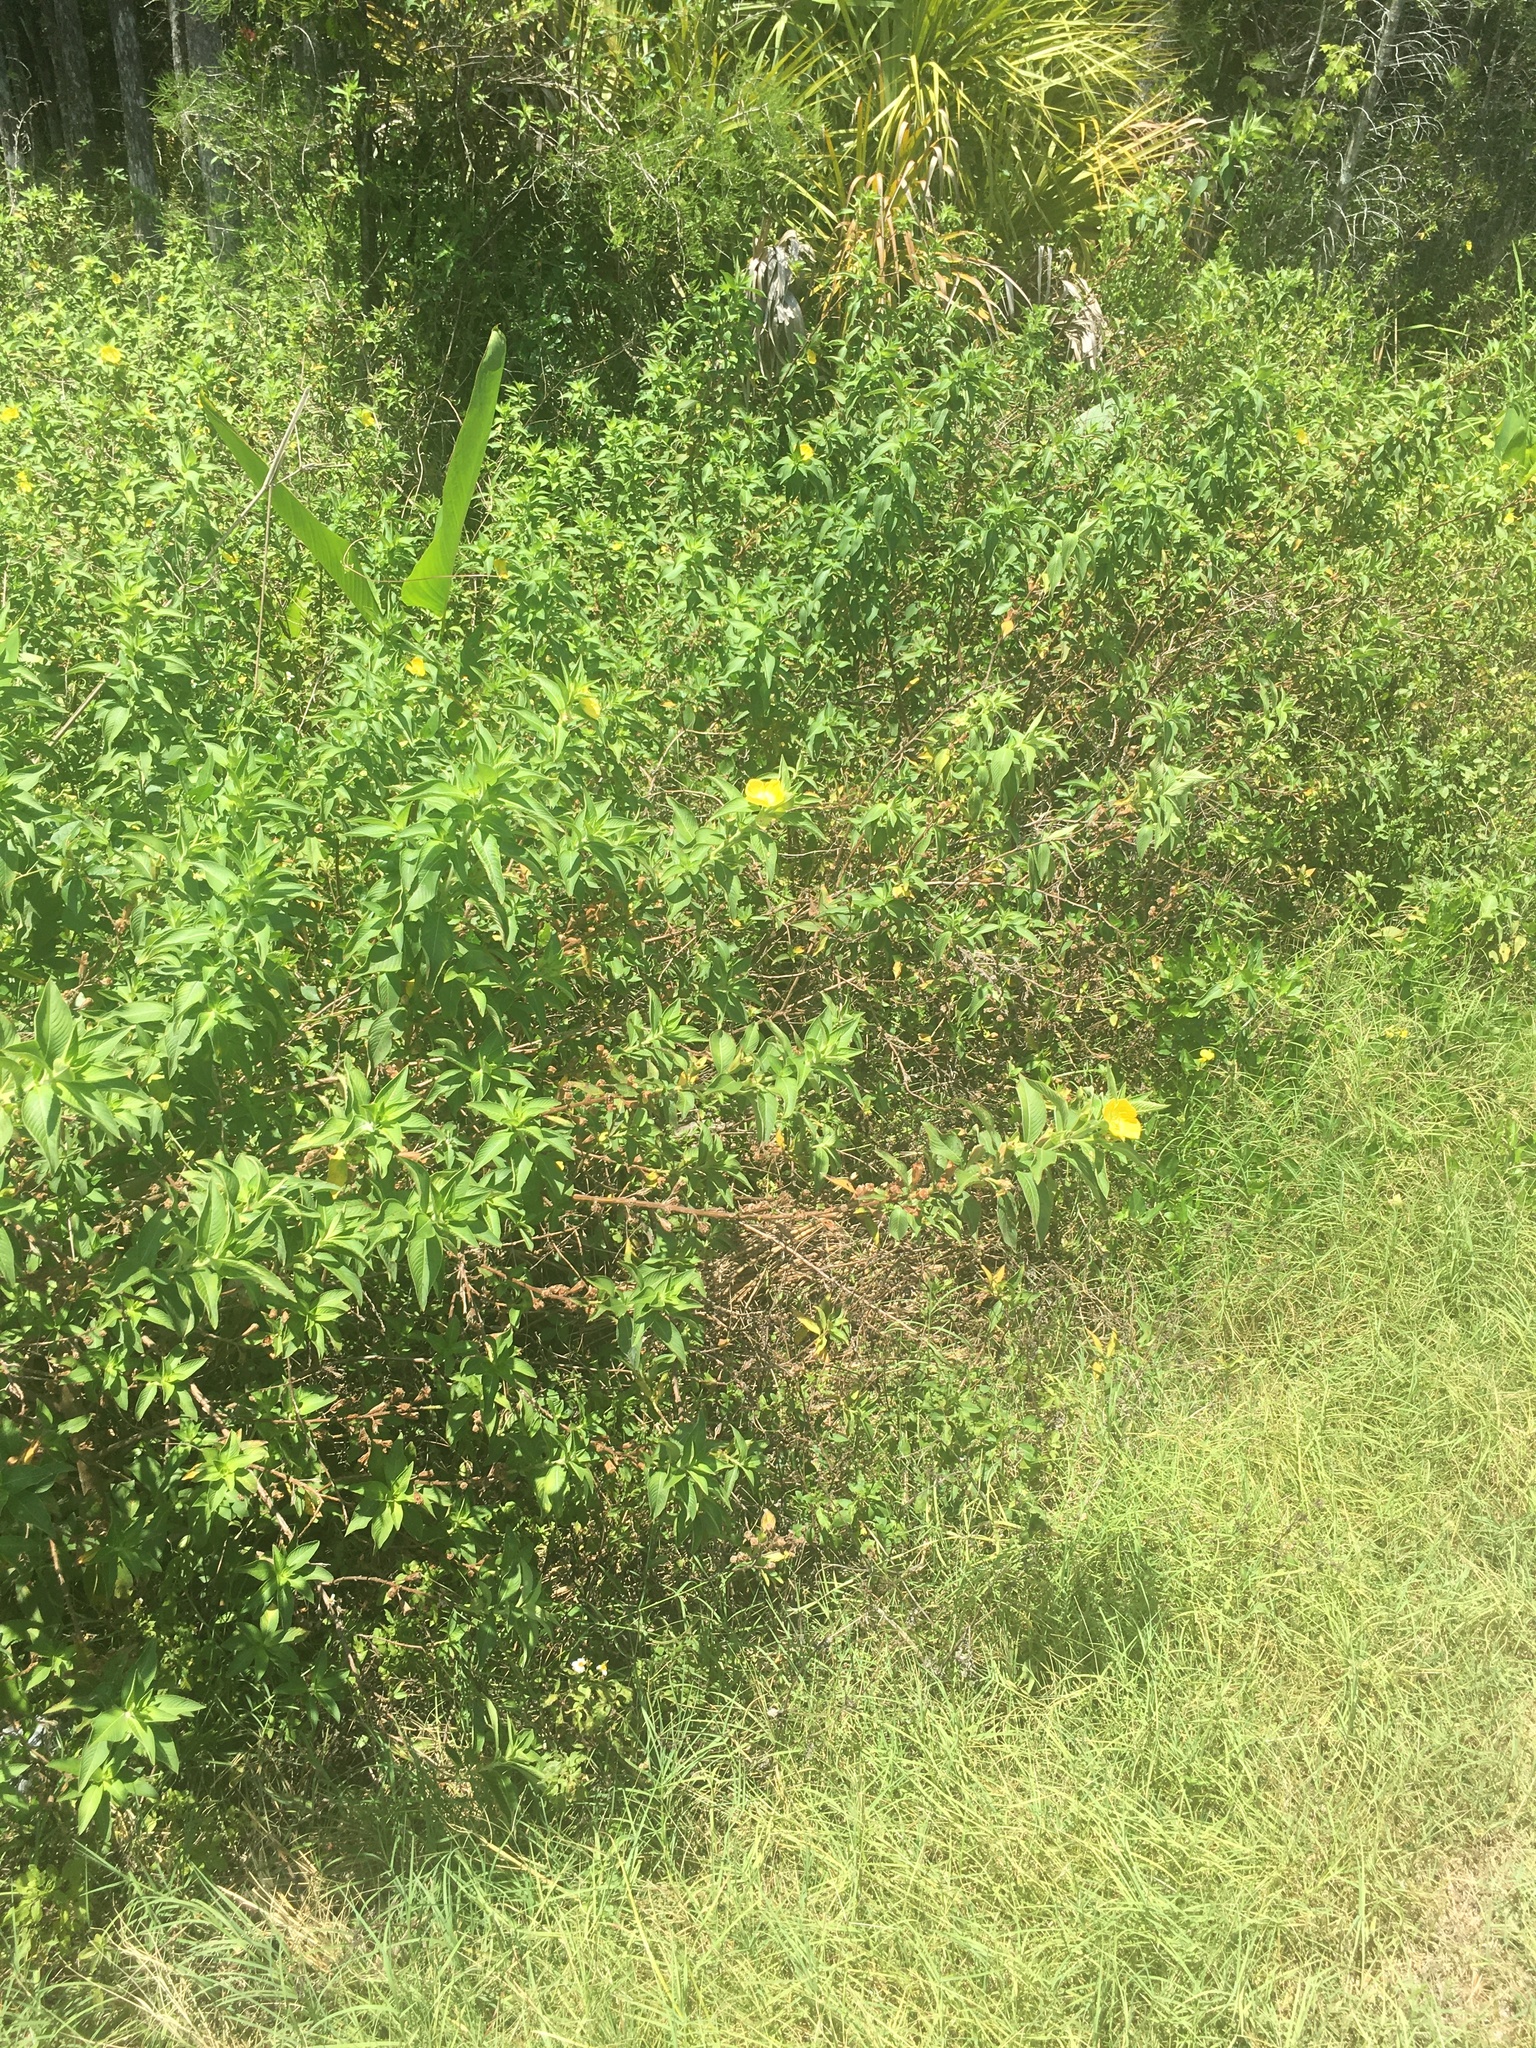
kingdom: Plantae
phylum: Tracheophyta
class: Magnoliopsida
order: Myrtales
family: Onagraceae
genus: Ludwigia
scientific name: Ludwigia peruviana
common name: Peruvian primrose-willow
